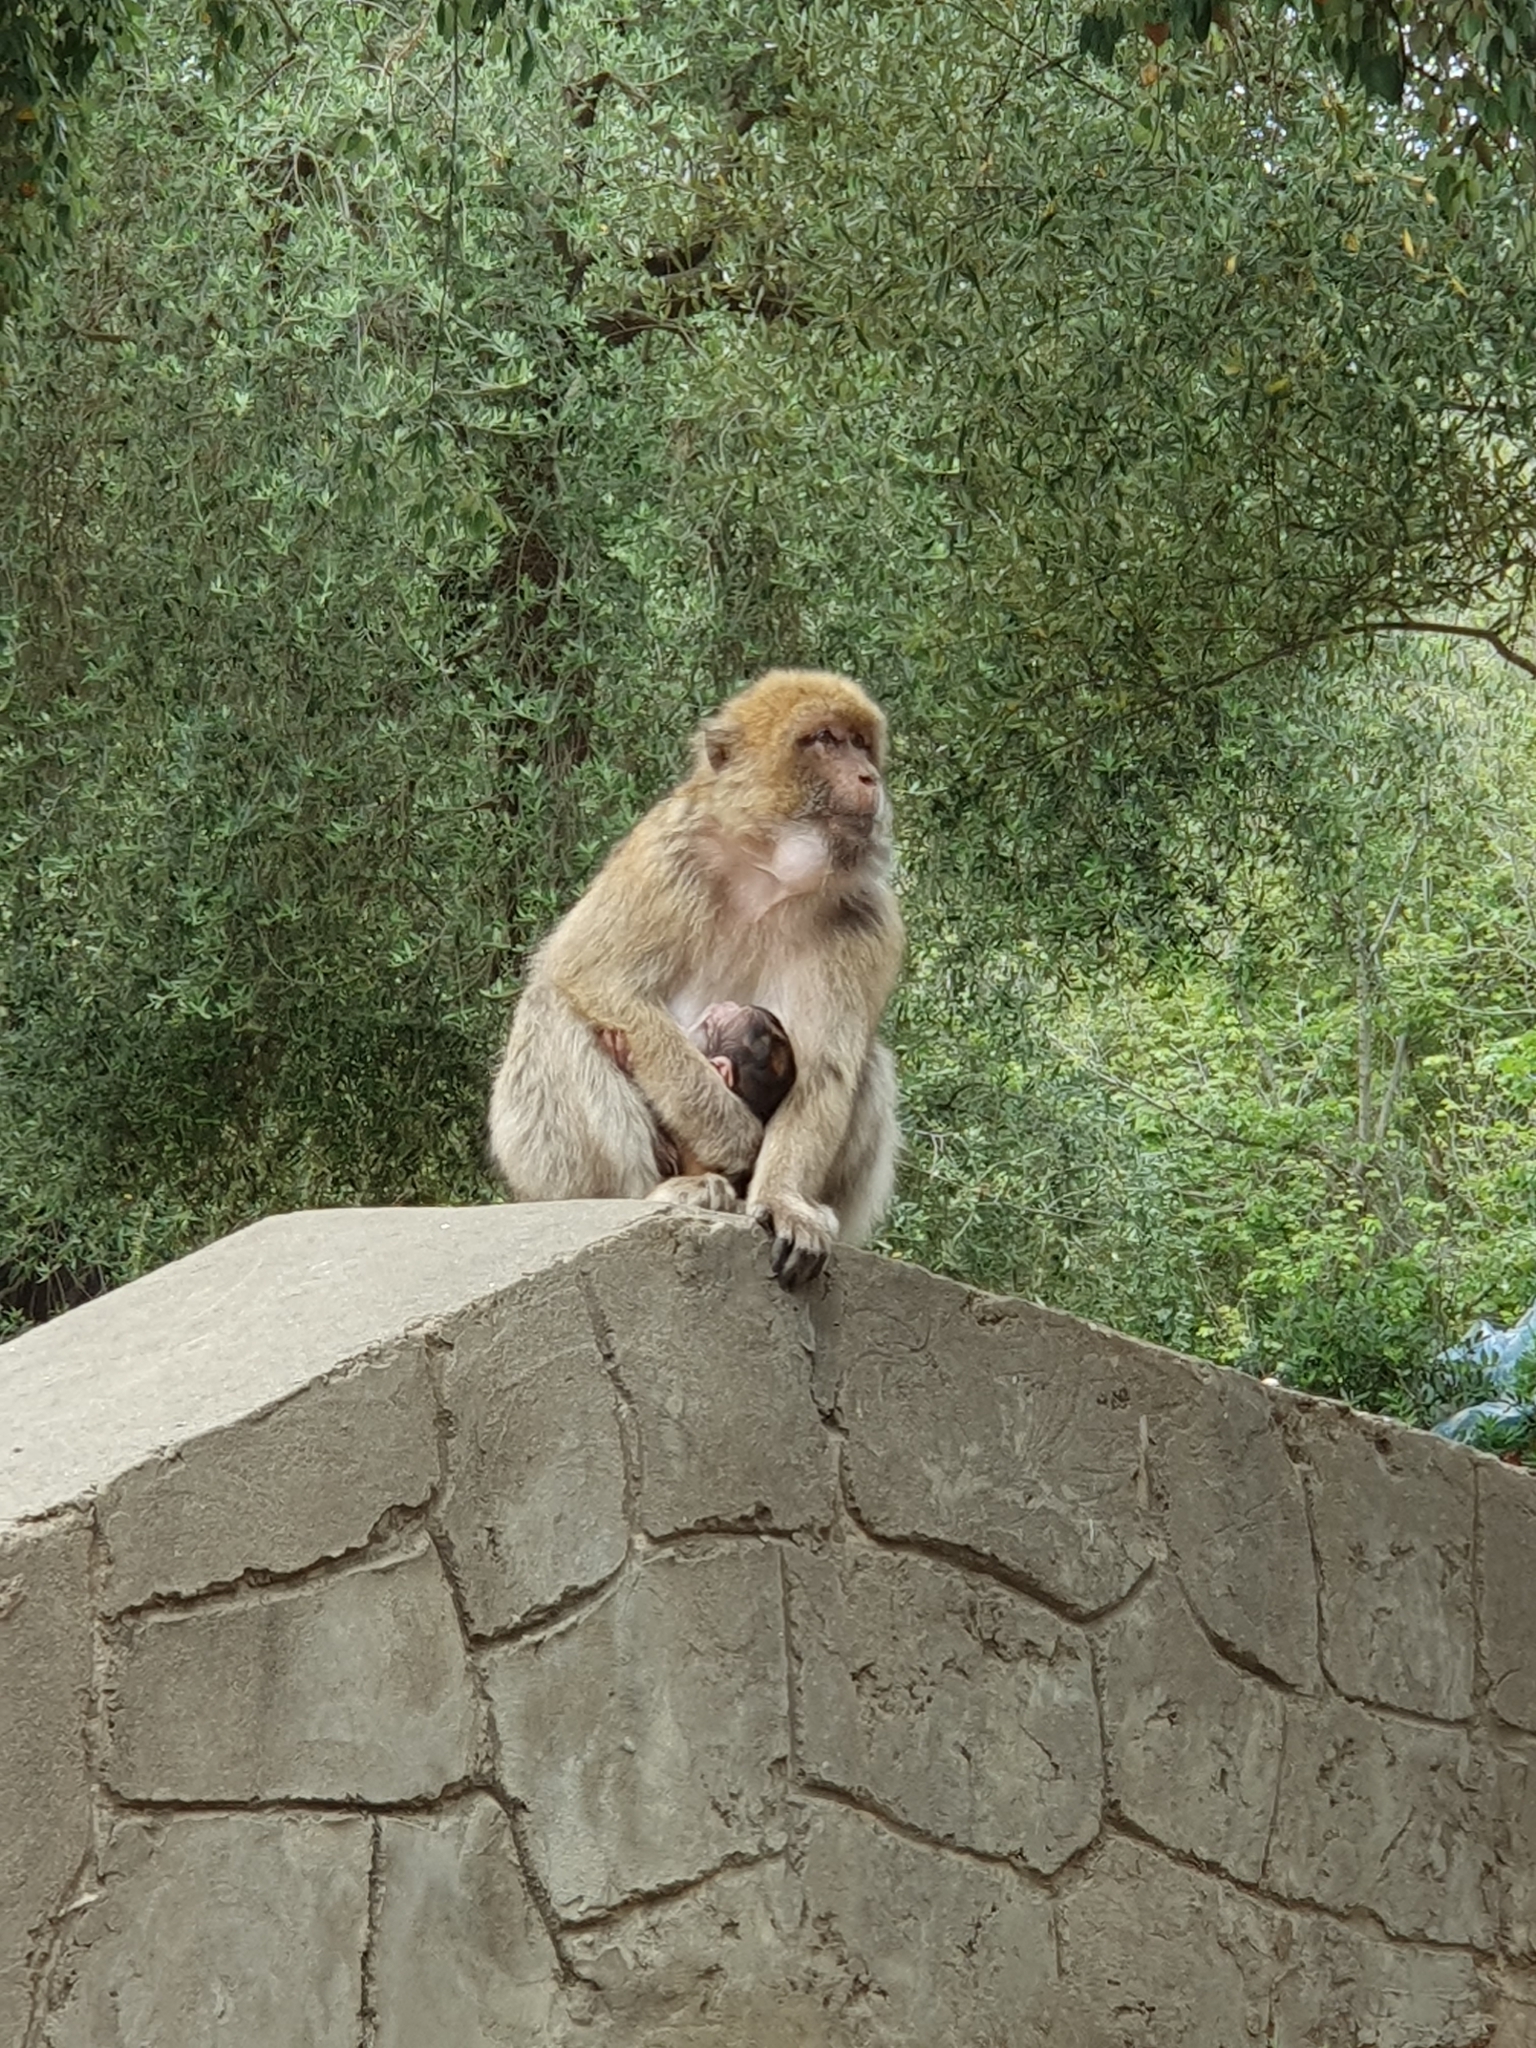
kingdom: Animalia
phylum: Chordata
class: Mammalia
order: Primates
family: Cercopithecidae
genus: Macaca
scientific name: Macaca sylvanus
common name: Barbary macaque
